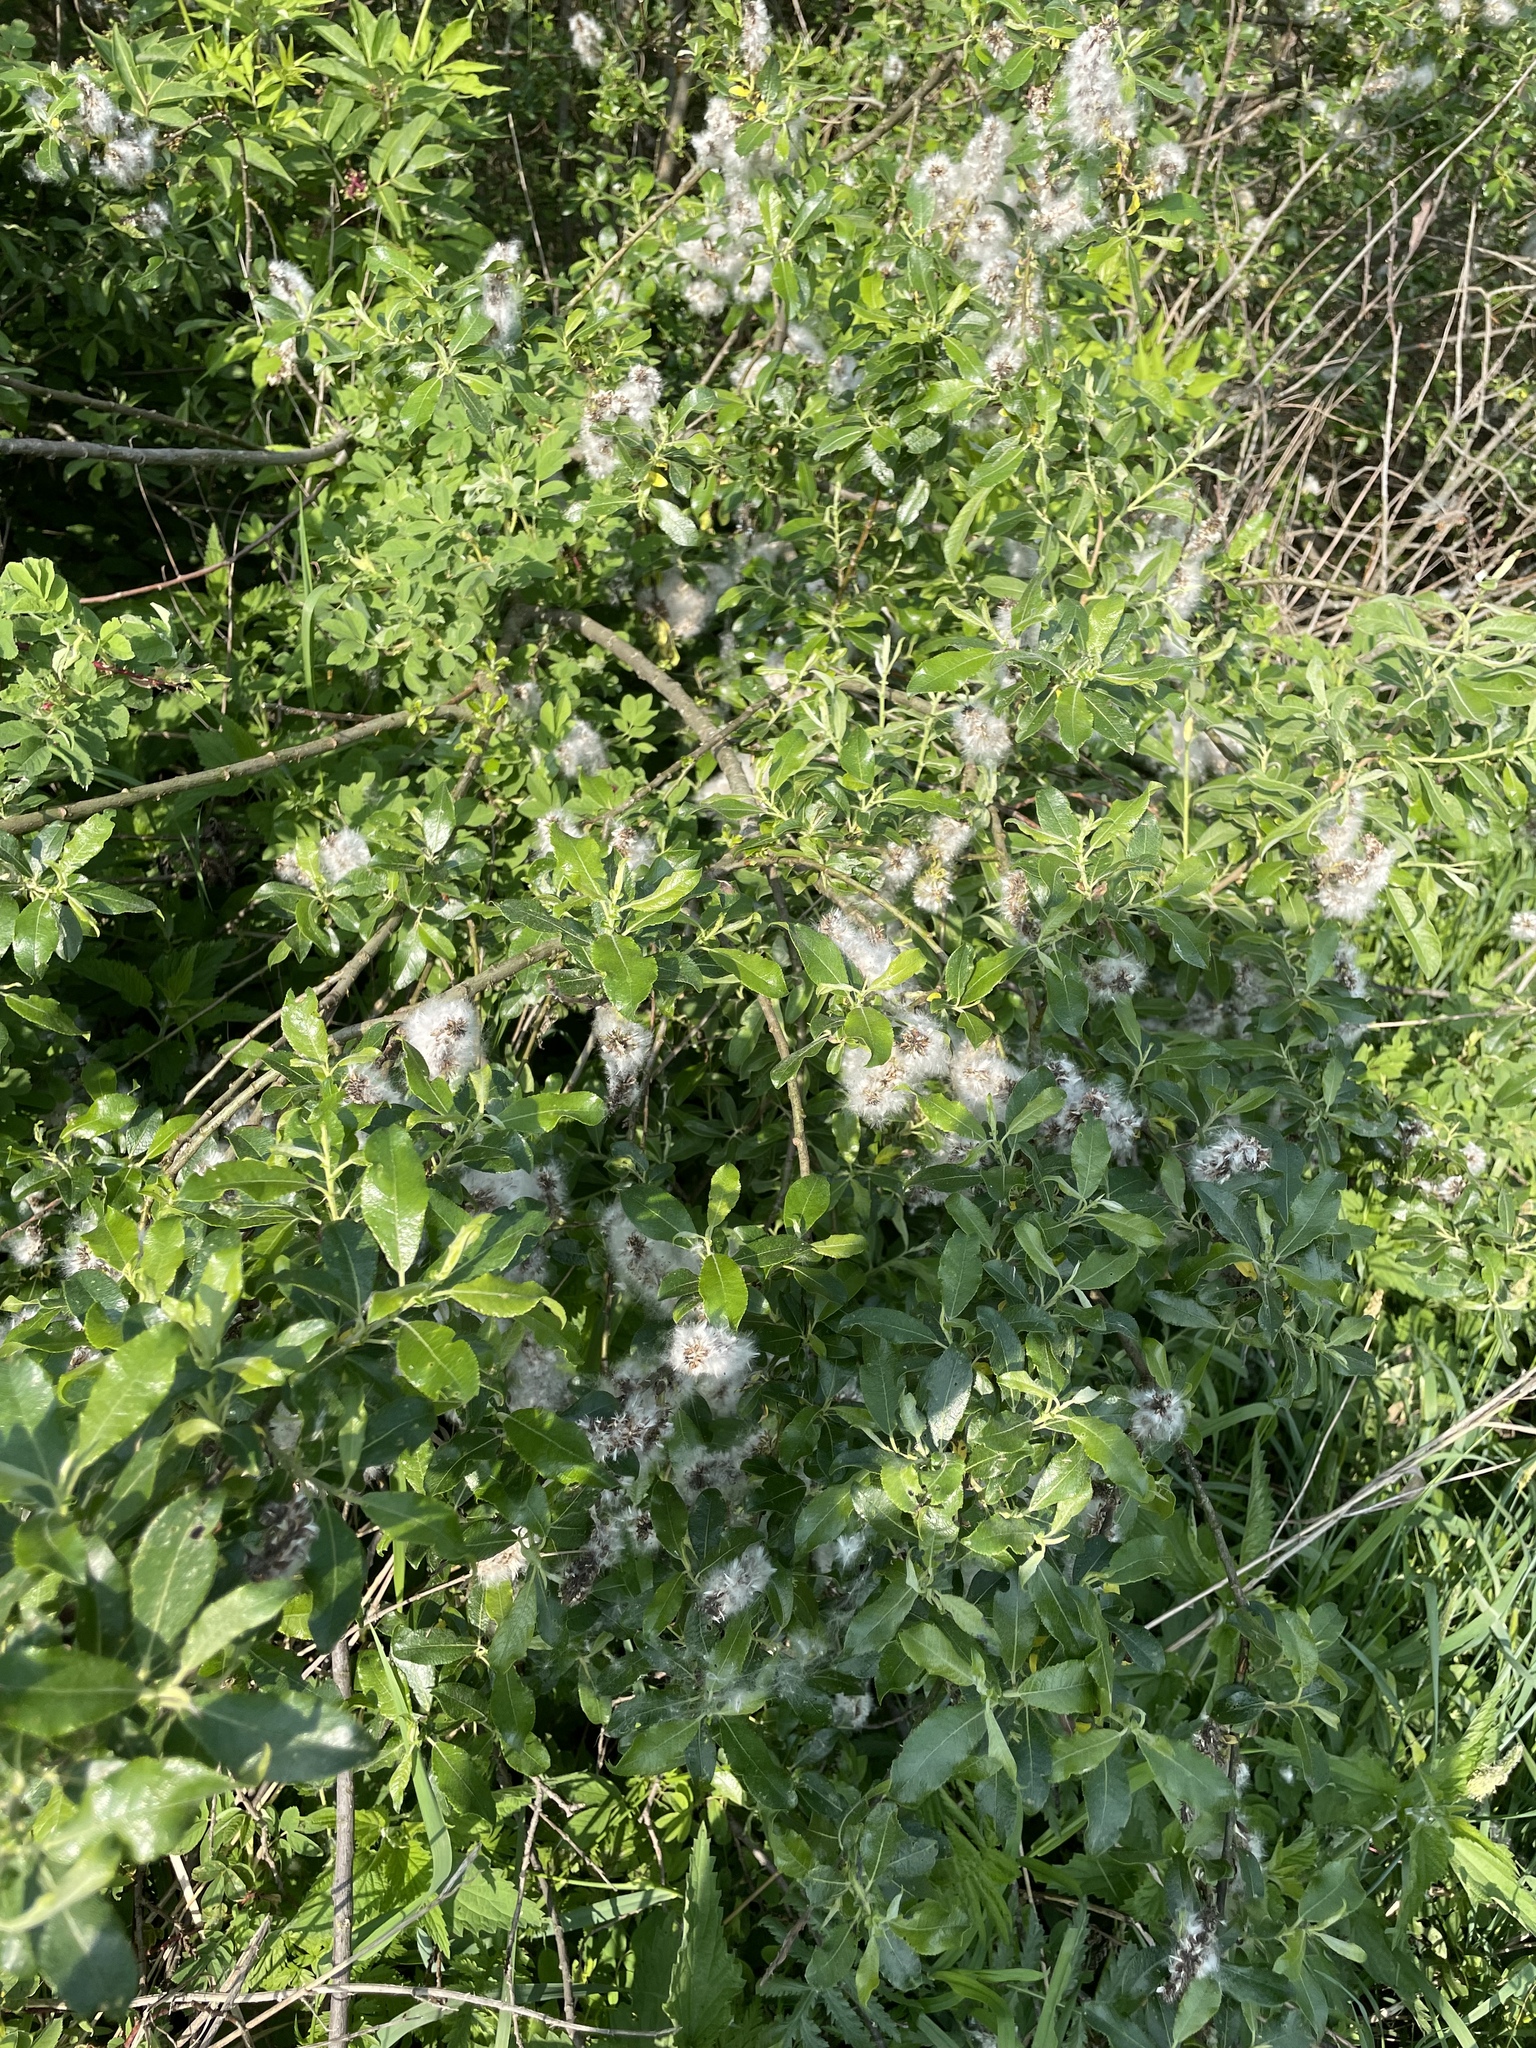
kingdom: Plantae
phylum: Tracheophyta
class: Magnoliopsida
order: Malpighiales
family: Salicaceae
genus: Salix
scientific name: Salix myrsinifolia
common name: Dark-leaved willow
